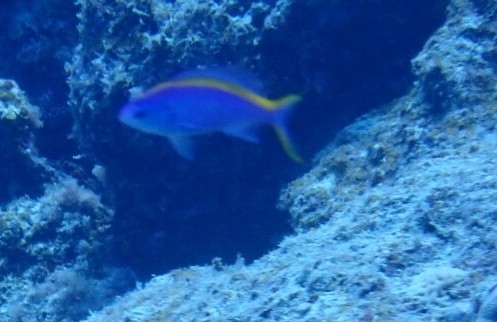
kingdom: Animalia
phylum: Chordata
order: Perciformes
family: Serranidae
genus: Pseudanthias
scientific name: Pseudanthias tuka
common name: Purple queen
